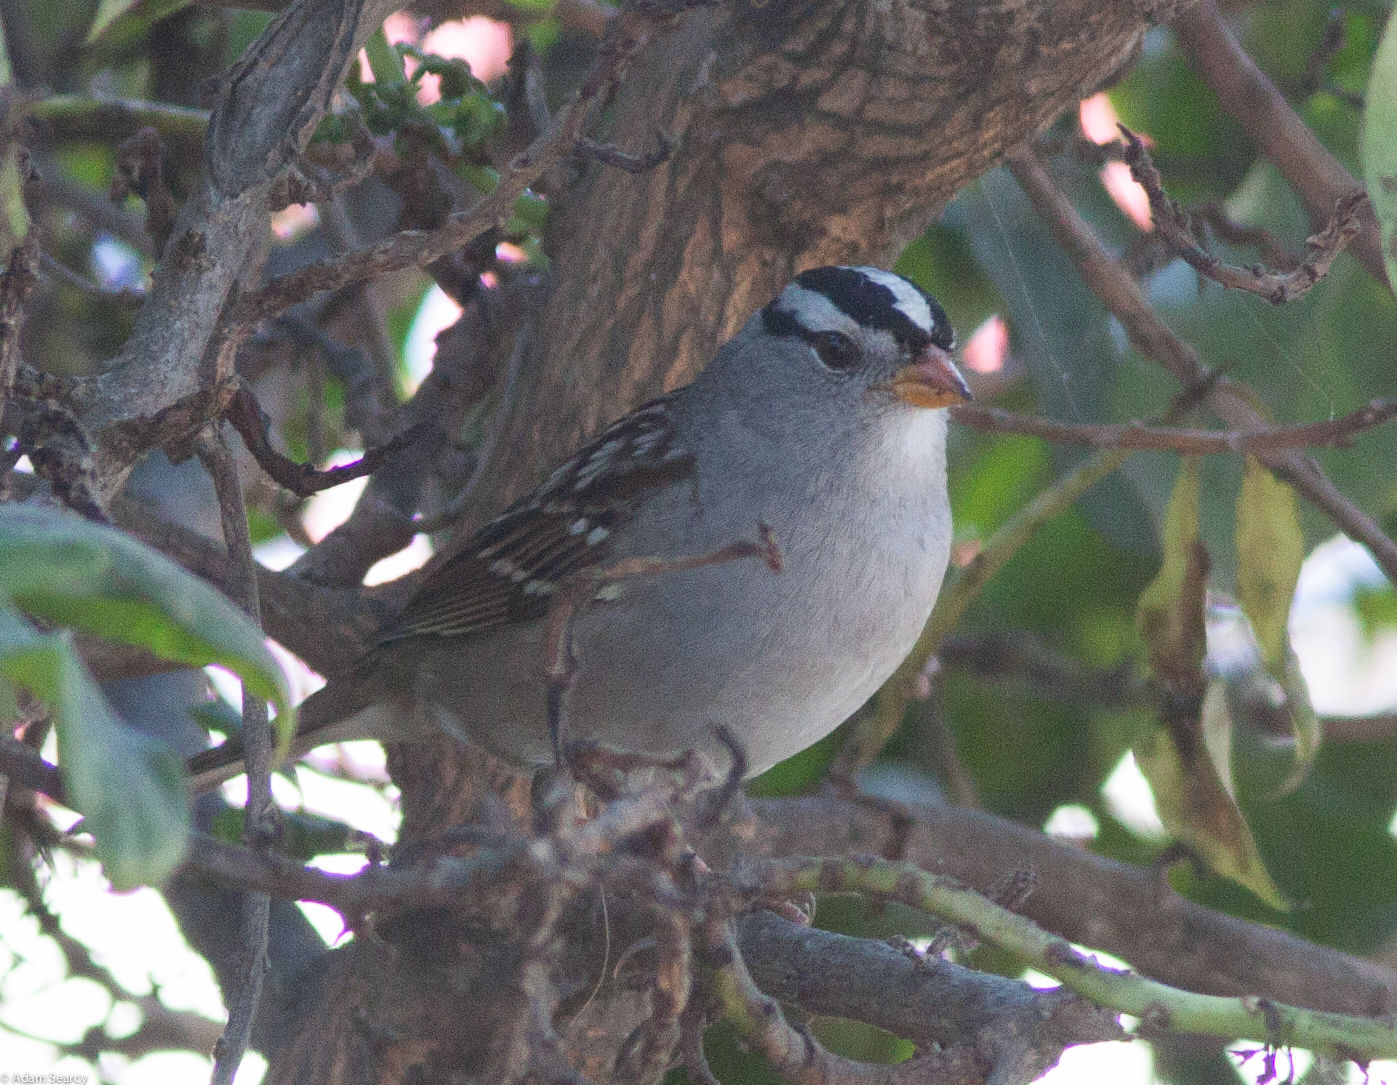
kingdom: Animalia
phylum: Chordata
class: Aves
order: Passeriformes
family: Passerellidae
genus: Zonotrichia
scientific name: Zonotrichia leucophrys
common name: White-crowned sparrow
